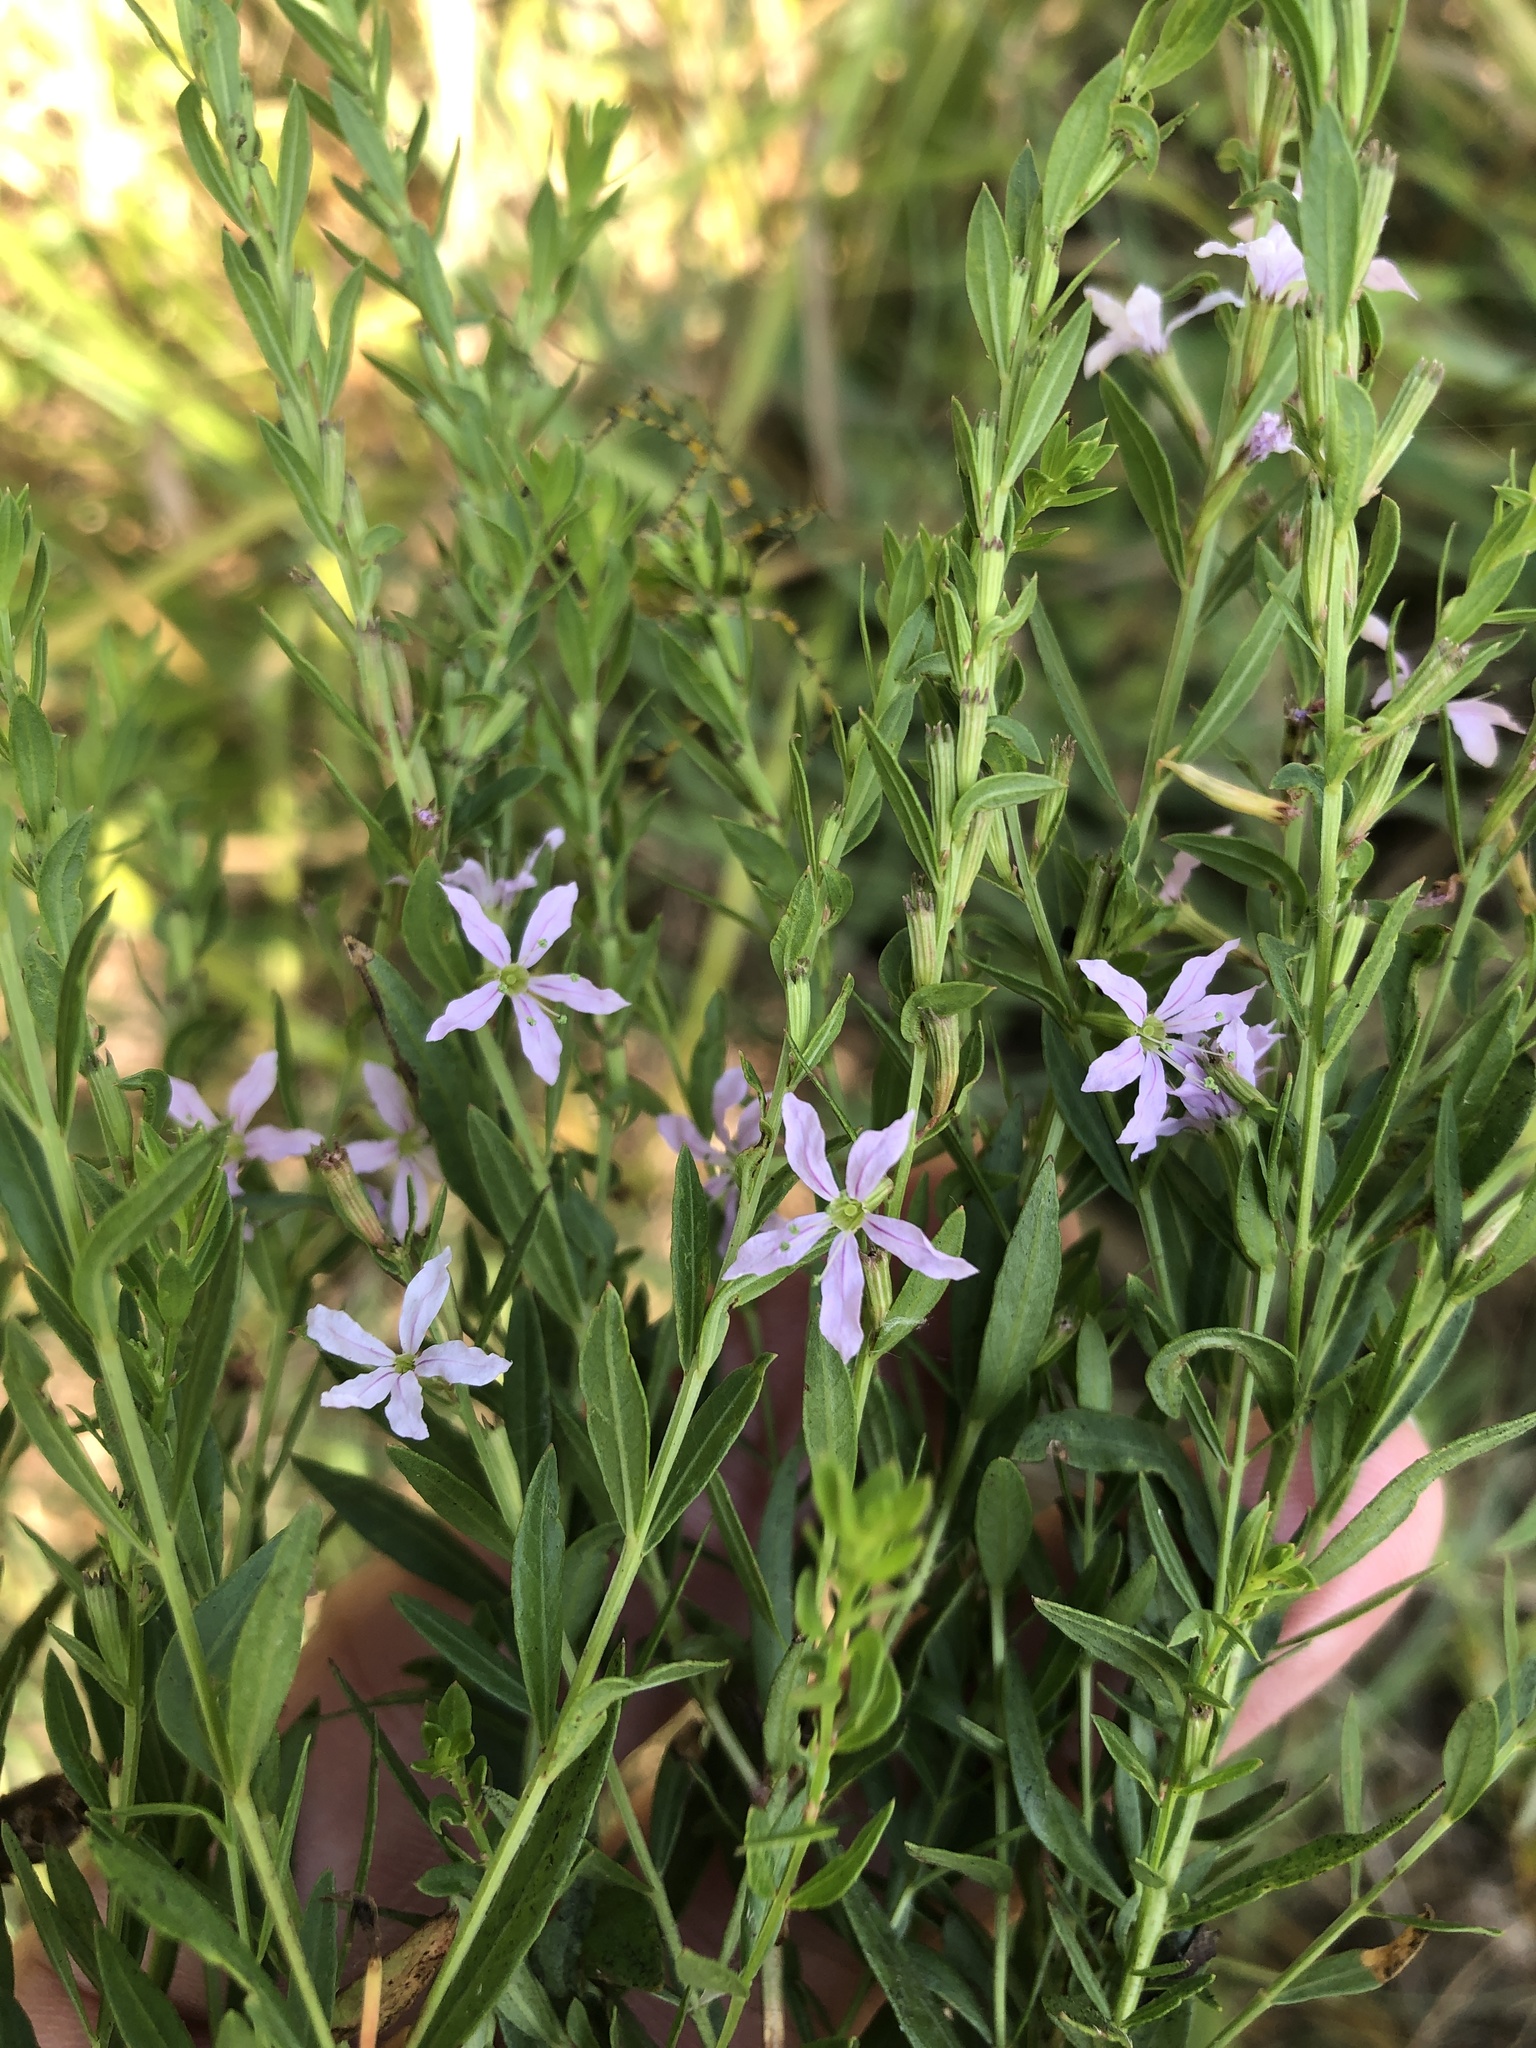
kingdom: Plantae
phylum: Tracheophyta
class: Magnoliopsida
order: Myrtales
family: Lythraceae
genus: Lythrum
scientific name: Lythrum alatum
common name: Winged loosestrife
